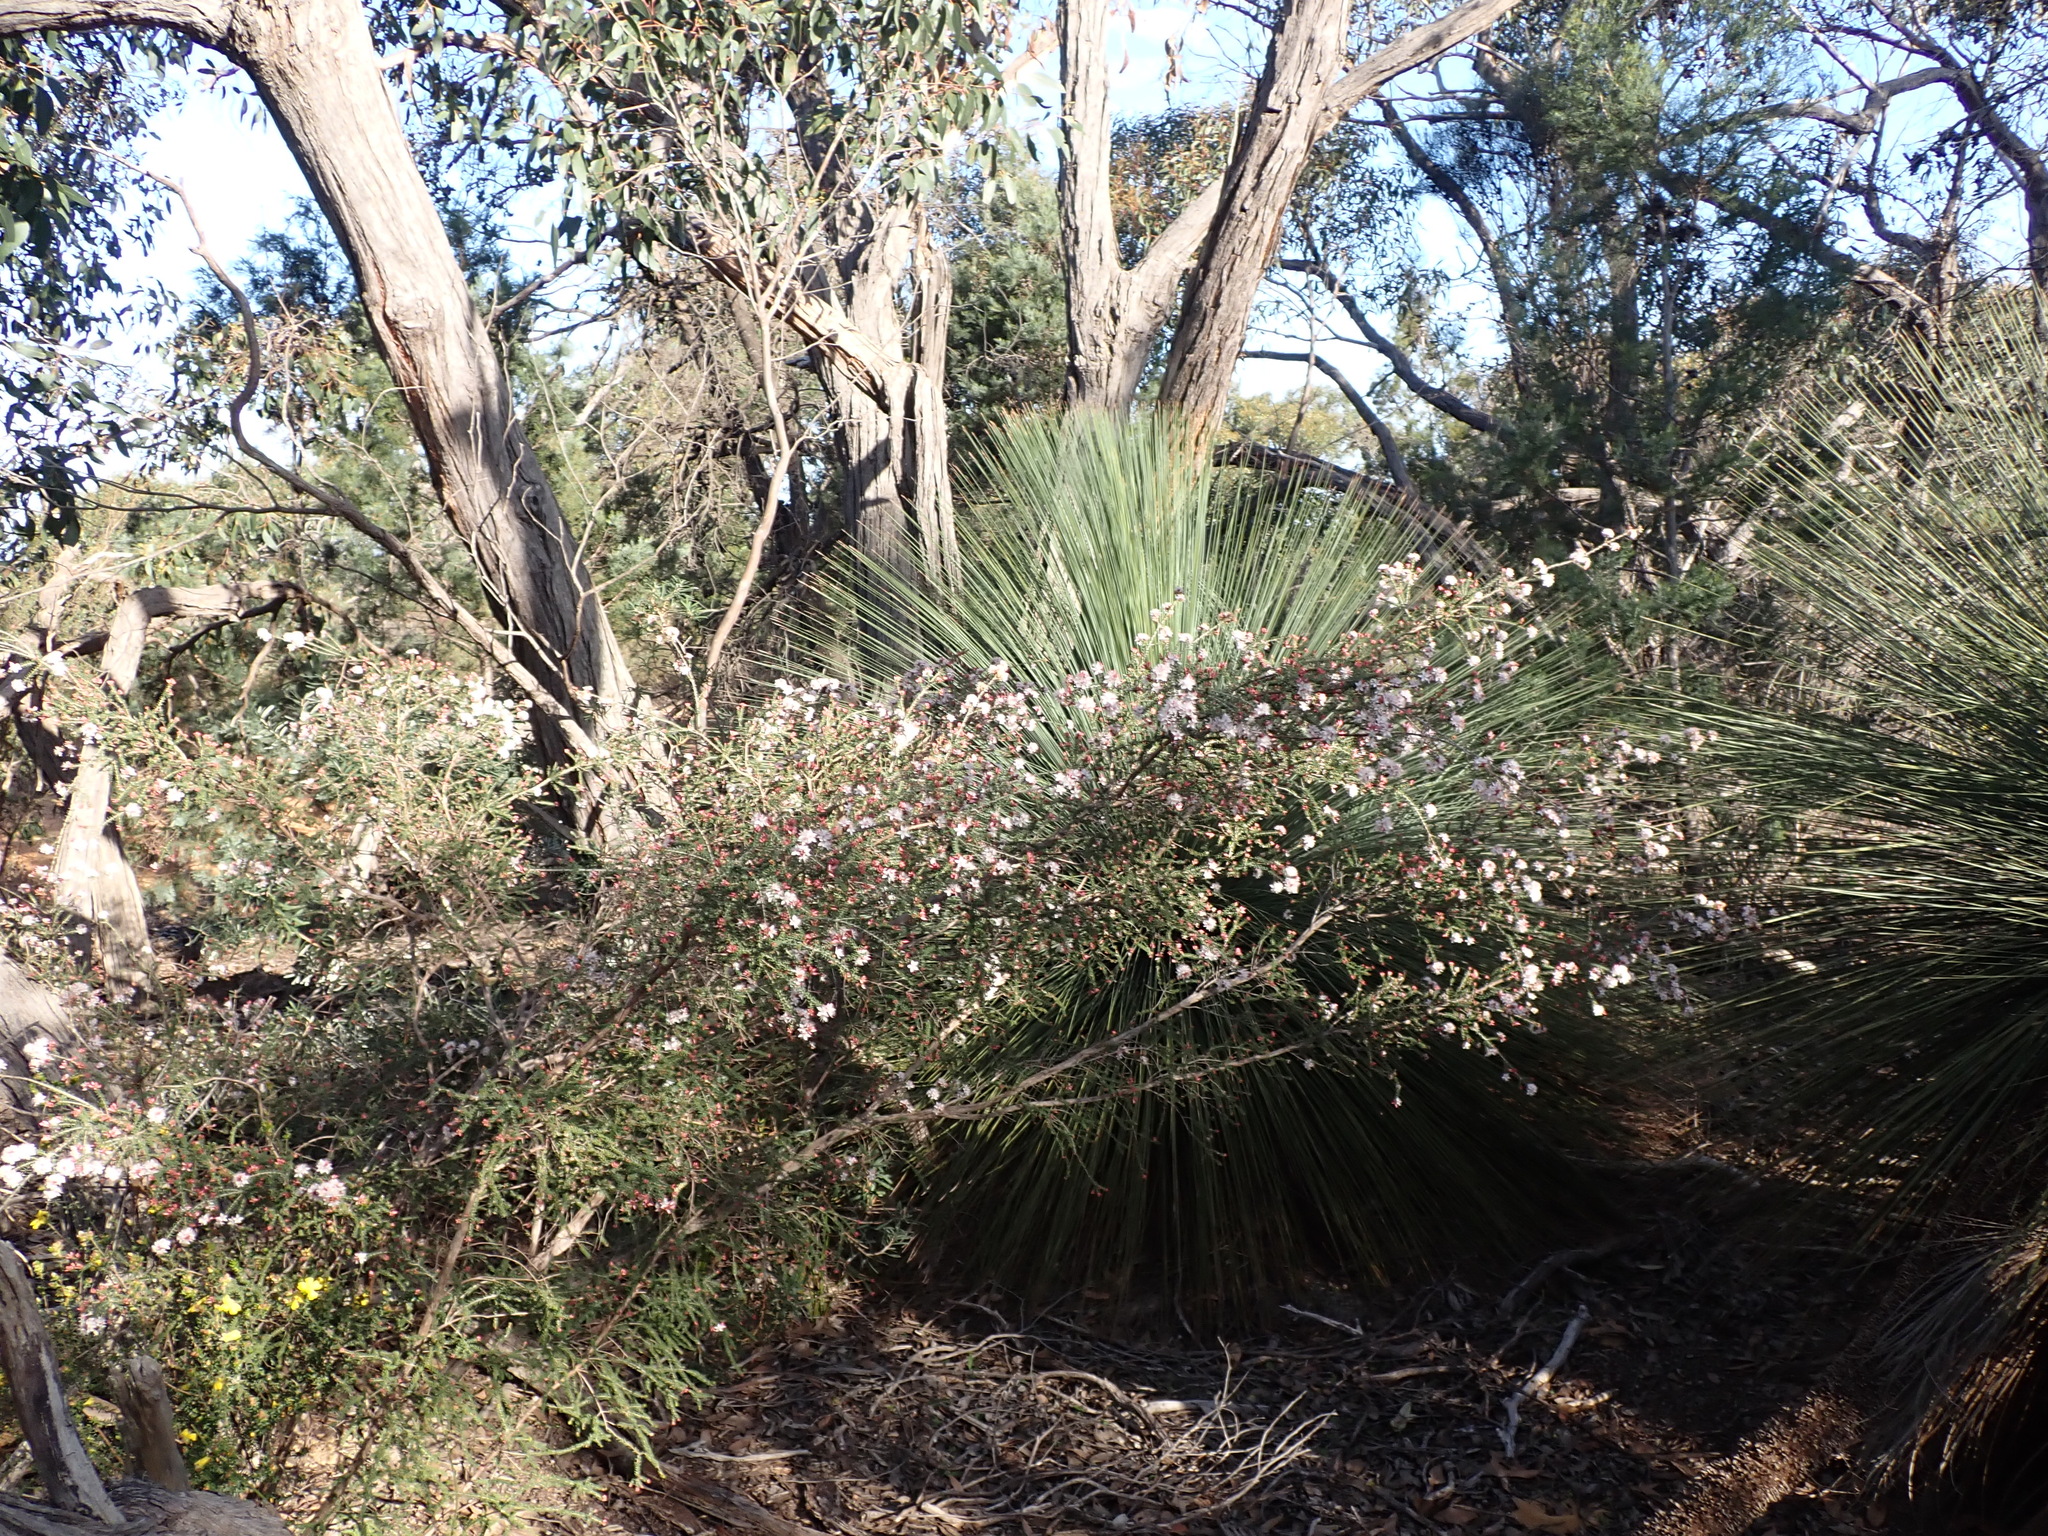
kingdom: Plantae
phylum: Tracheophyta
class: Magnoliopsida
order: Myrtales
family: Myrtaceae
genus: Calytrix
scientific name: Calytrix alpestris
